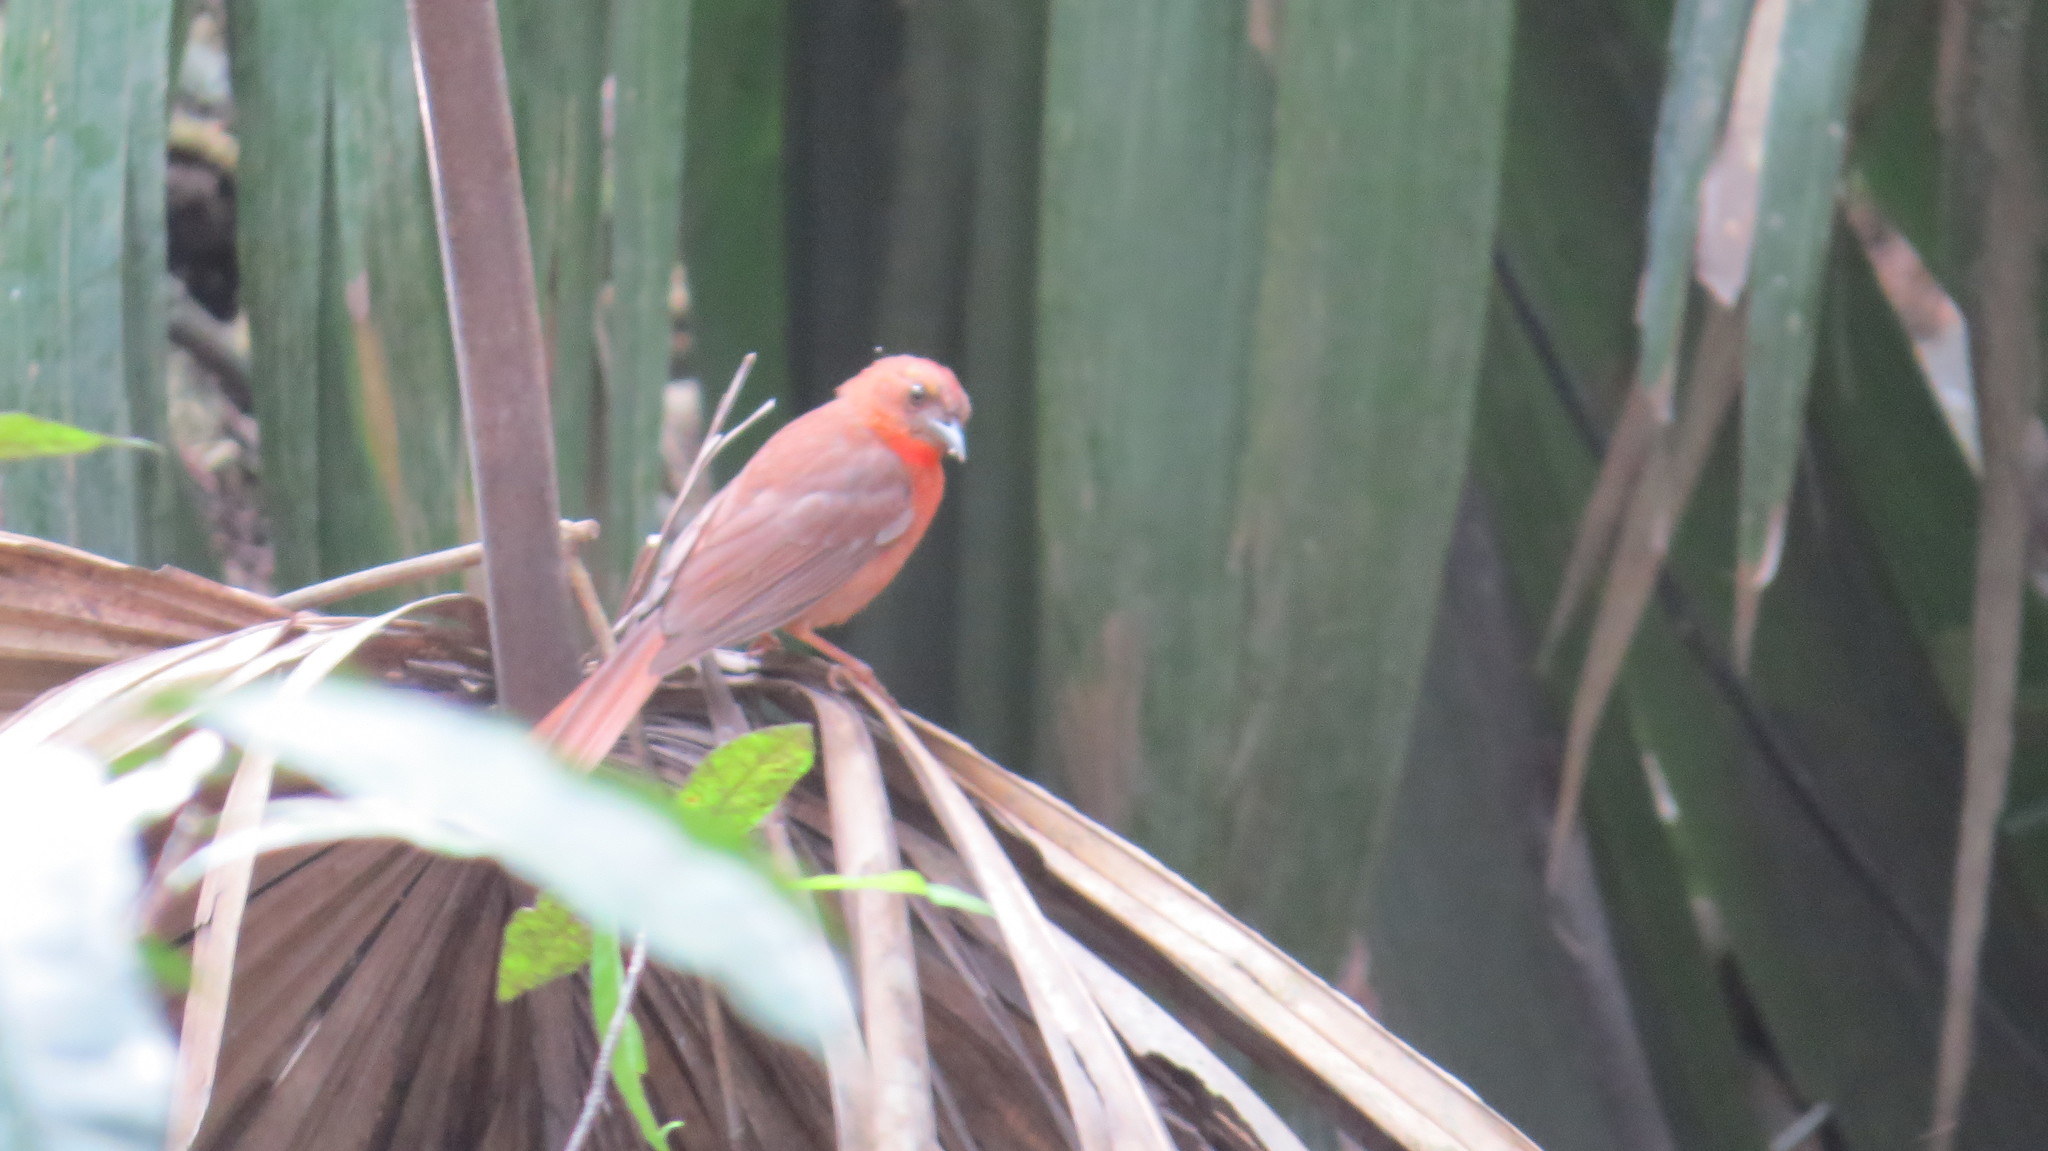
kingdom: Animalia
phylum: Chordata
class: Aves
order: Passeriformes
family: Cardinalidae
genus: Habia
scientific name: Habia fuscicauda
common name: Red-throated ant-tanager
